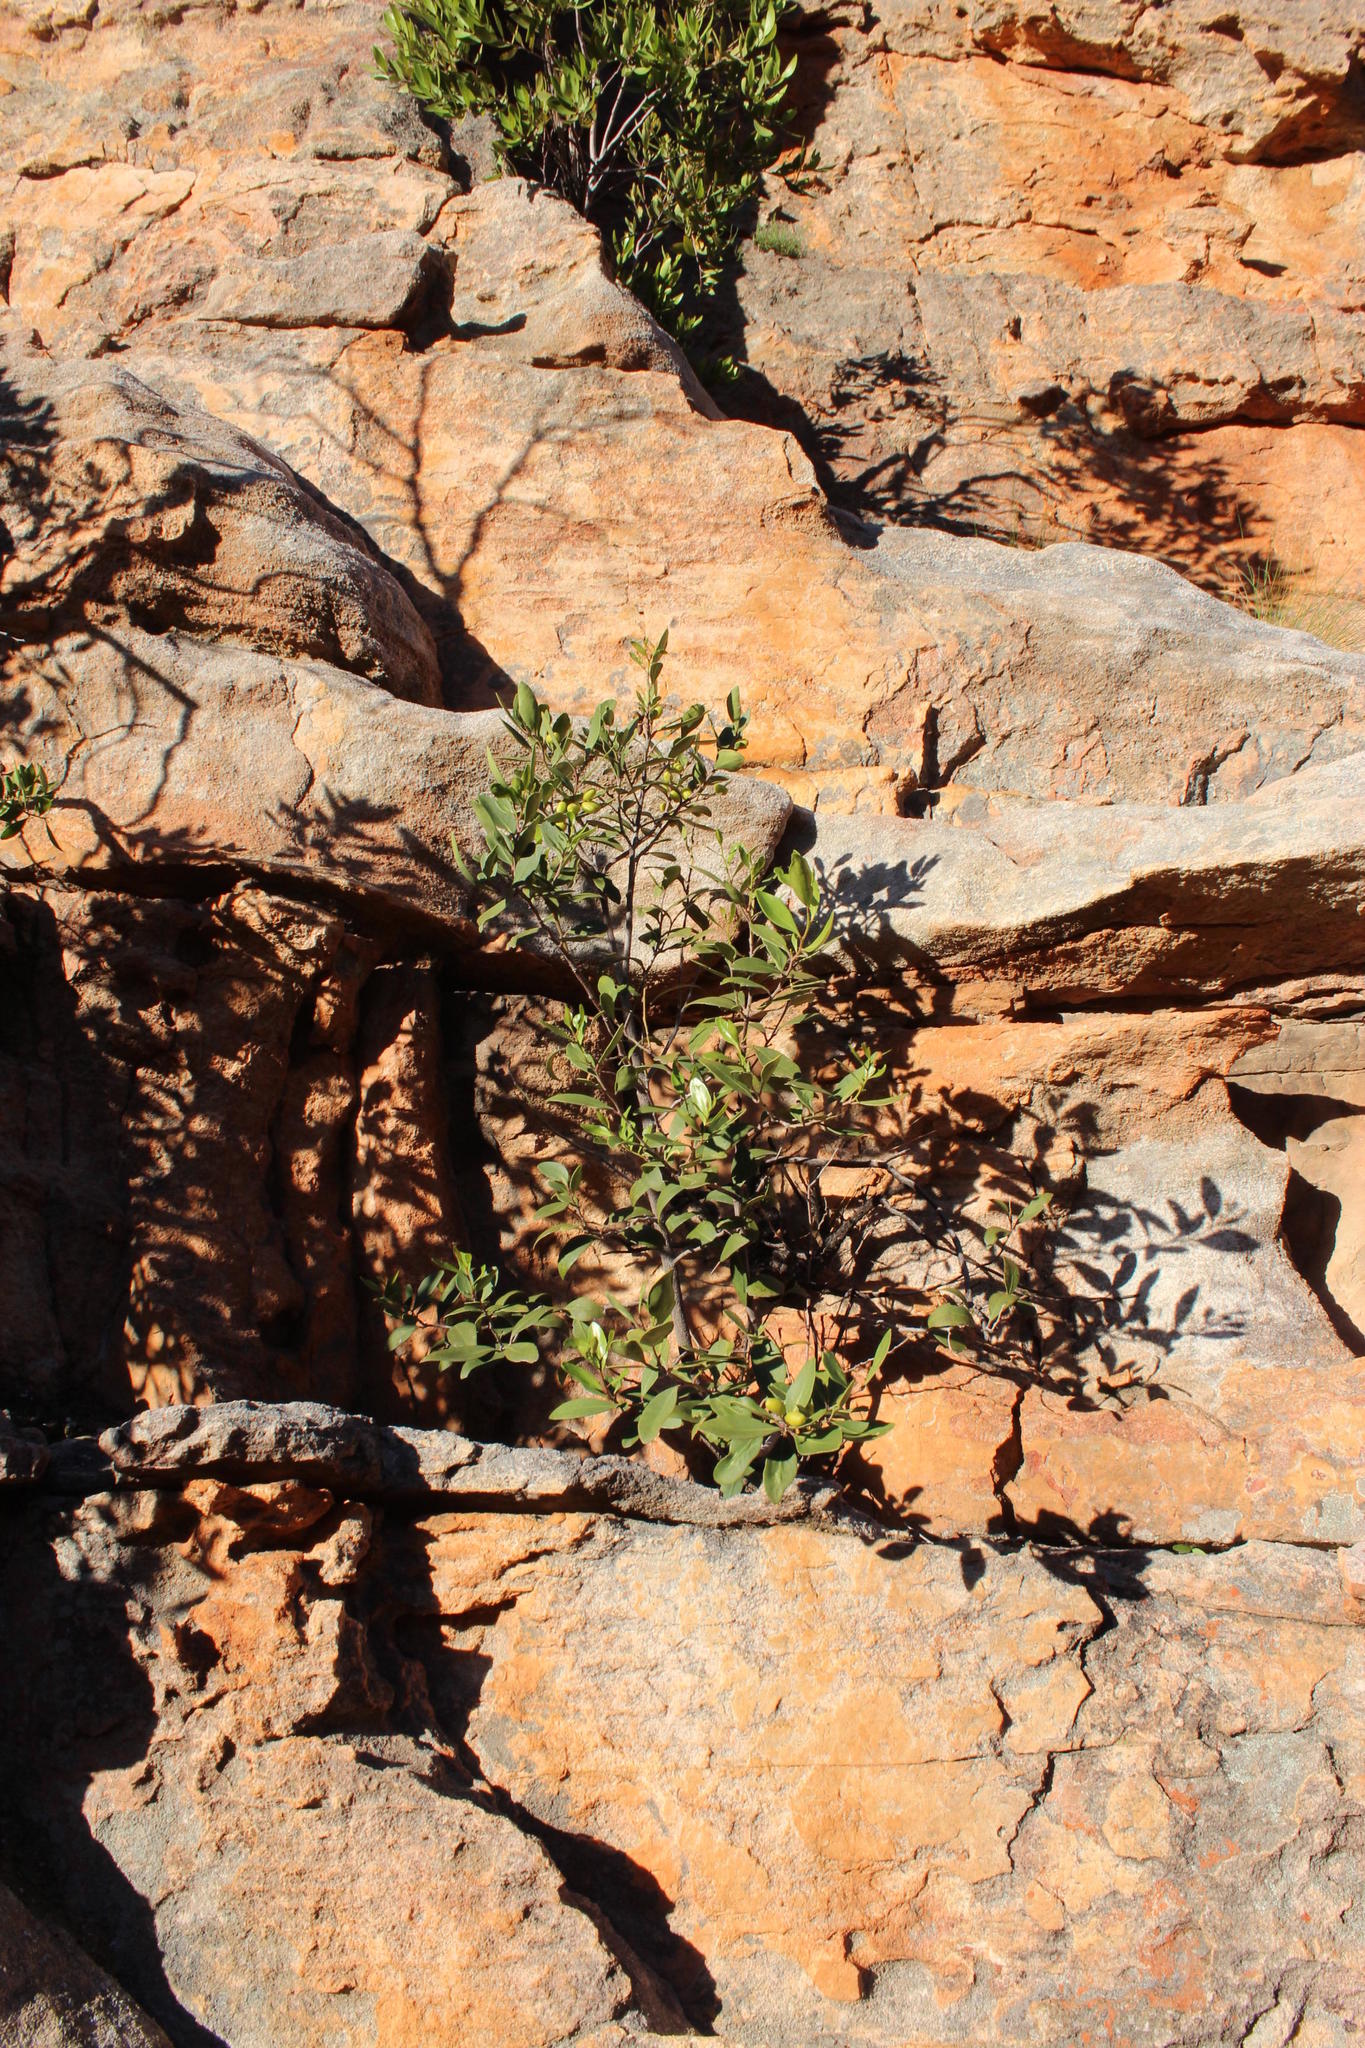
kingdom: Plantae
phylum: Tracheophyta
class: Magnoliopsida
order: Celastrales
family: Celastraceae
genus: Gymnosporia
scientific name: Gymnosporia laurina
